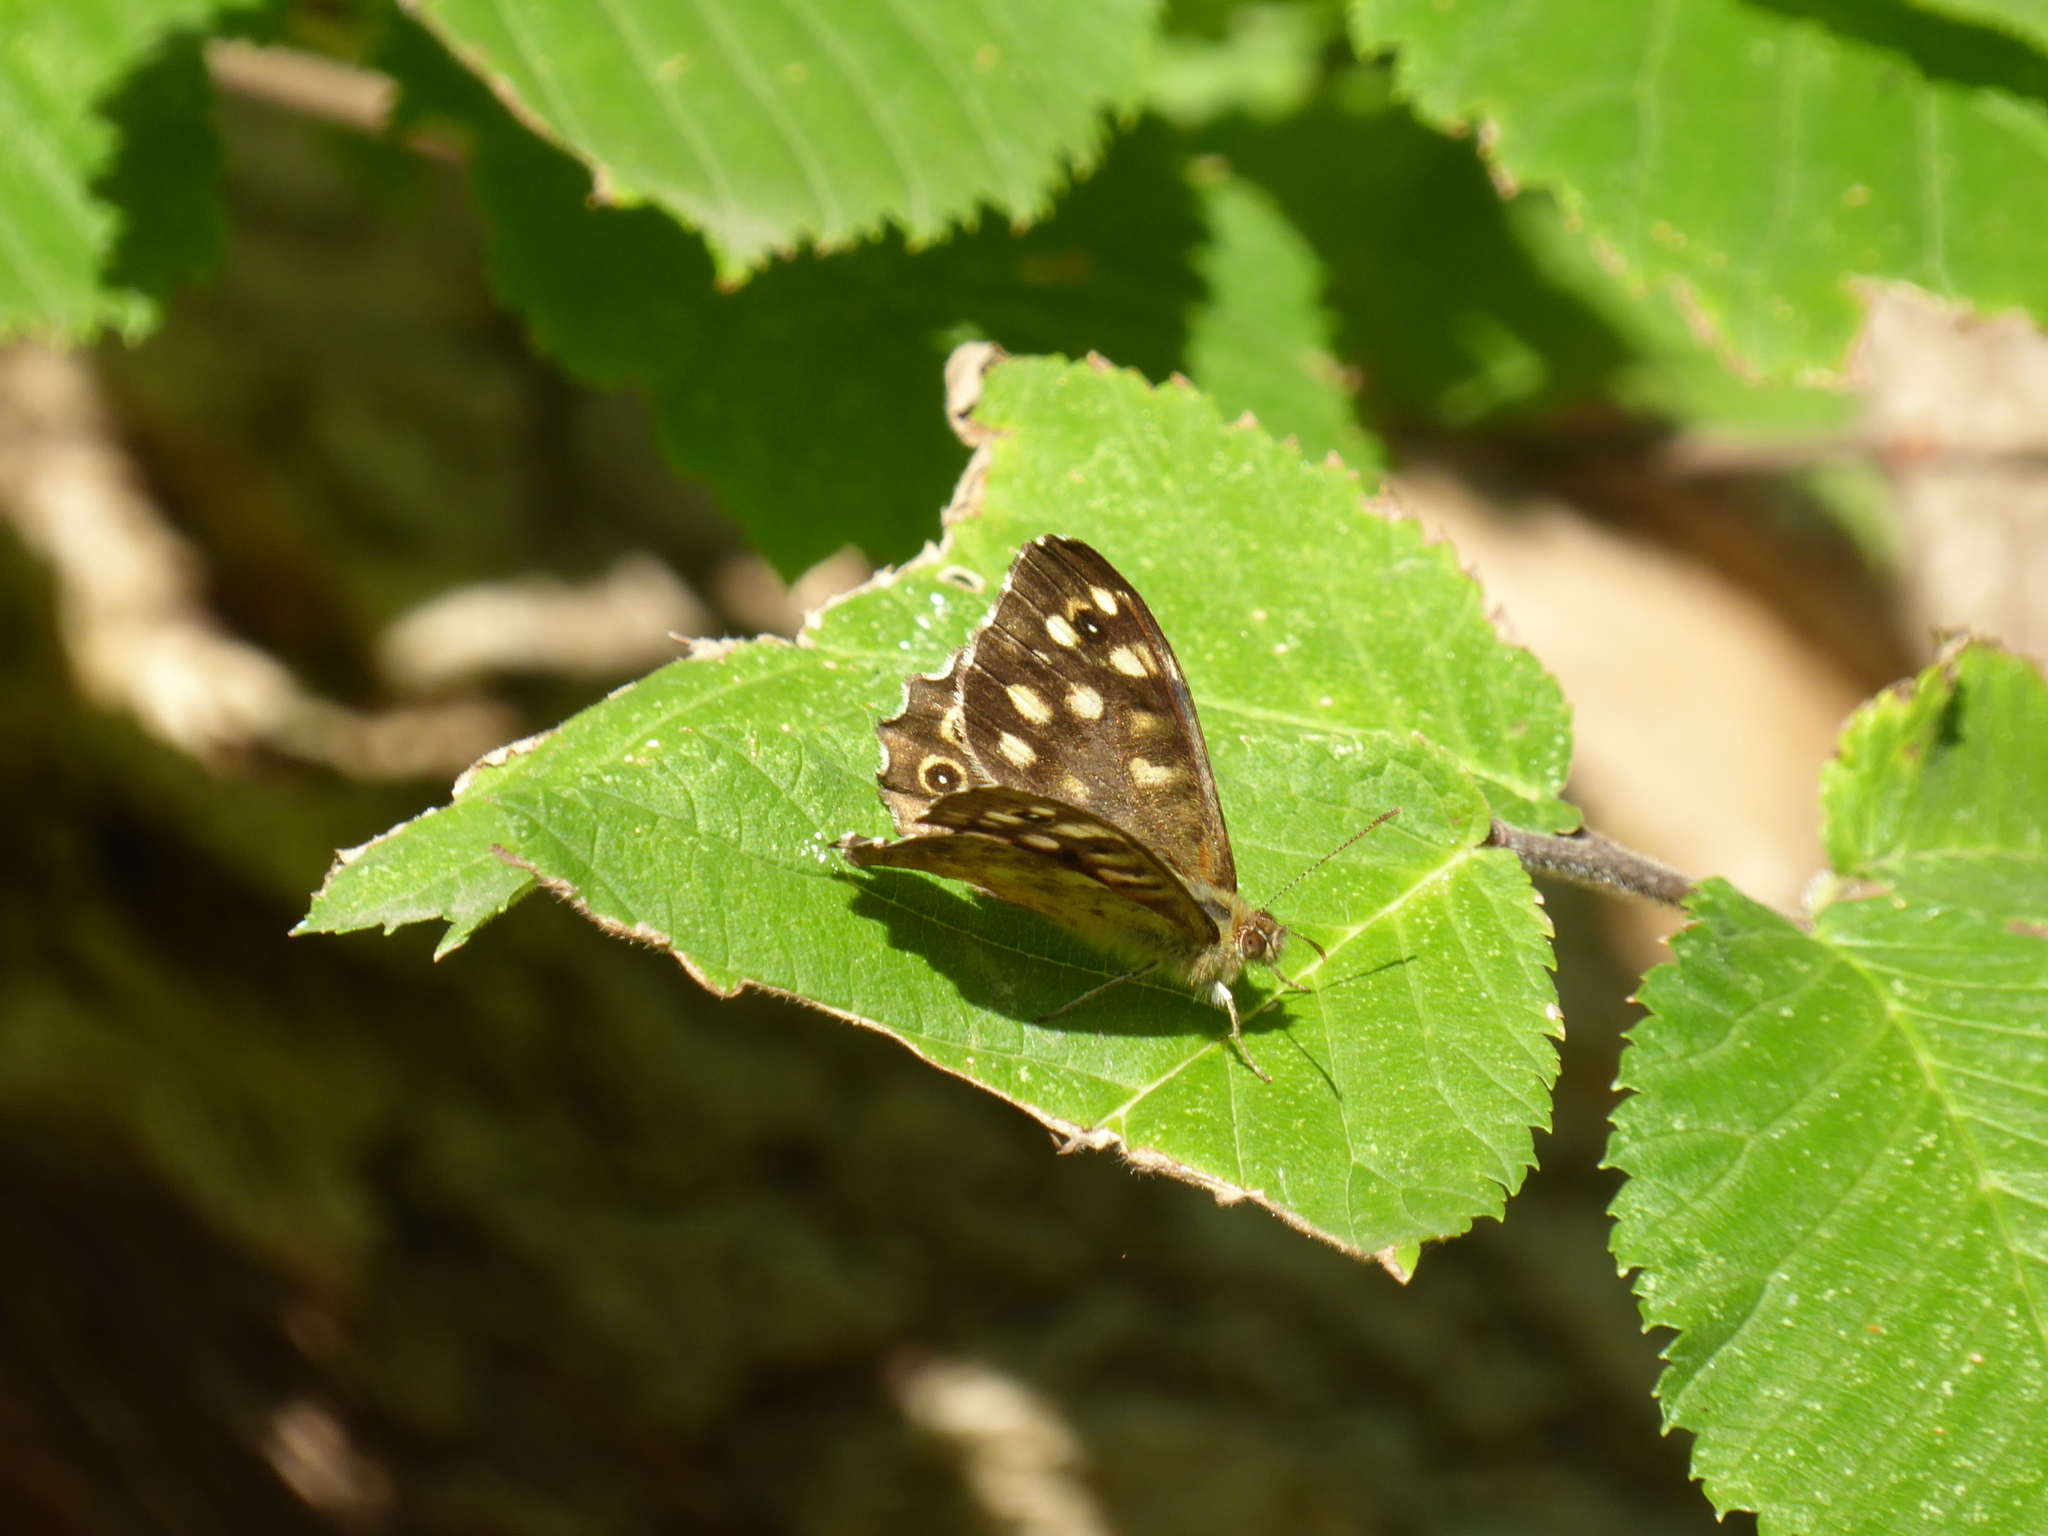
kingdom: Animalia
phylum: Arthropoda
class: Insecta
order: Lepidoptera
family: Nymphalidae
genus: Pararge
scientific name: Pararge aegeria
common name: Speckled wood
